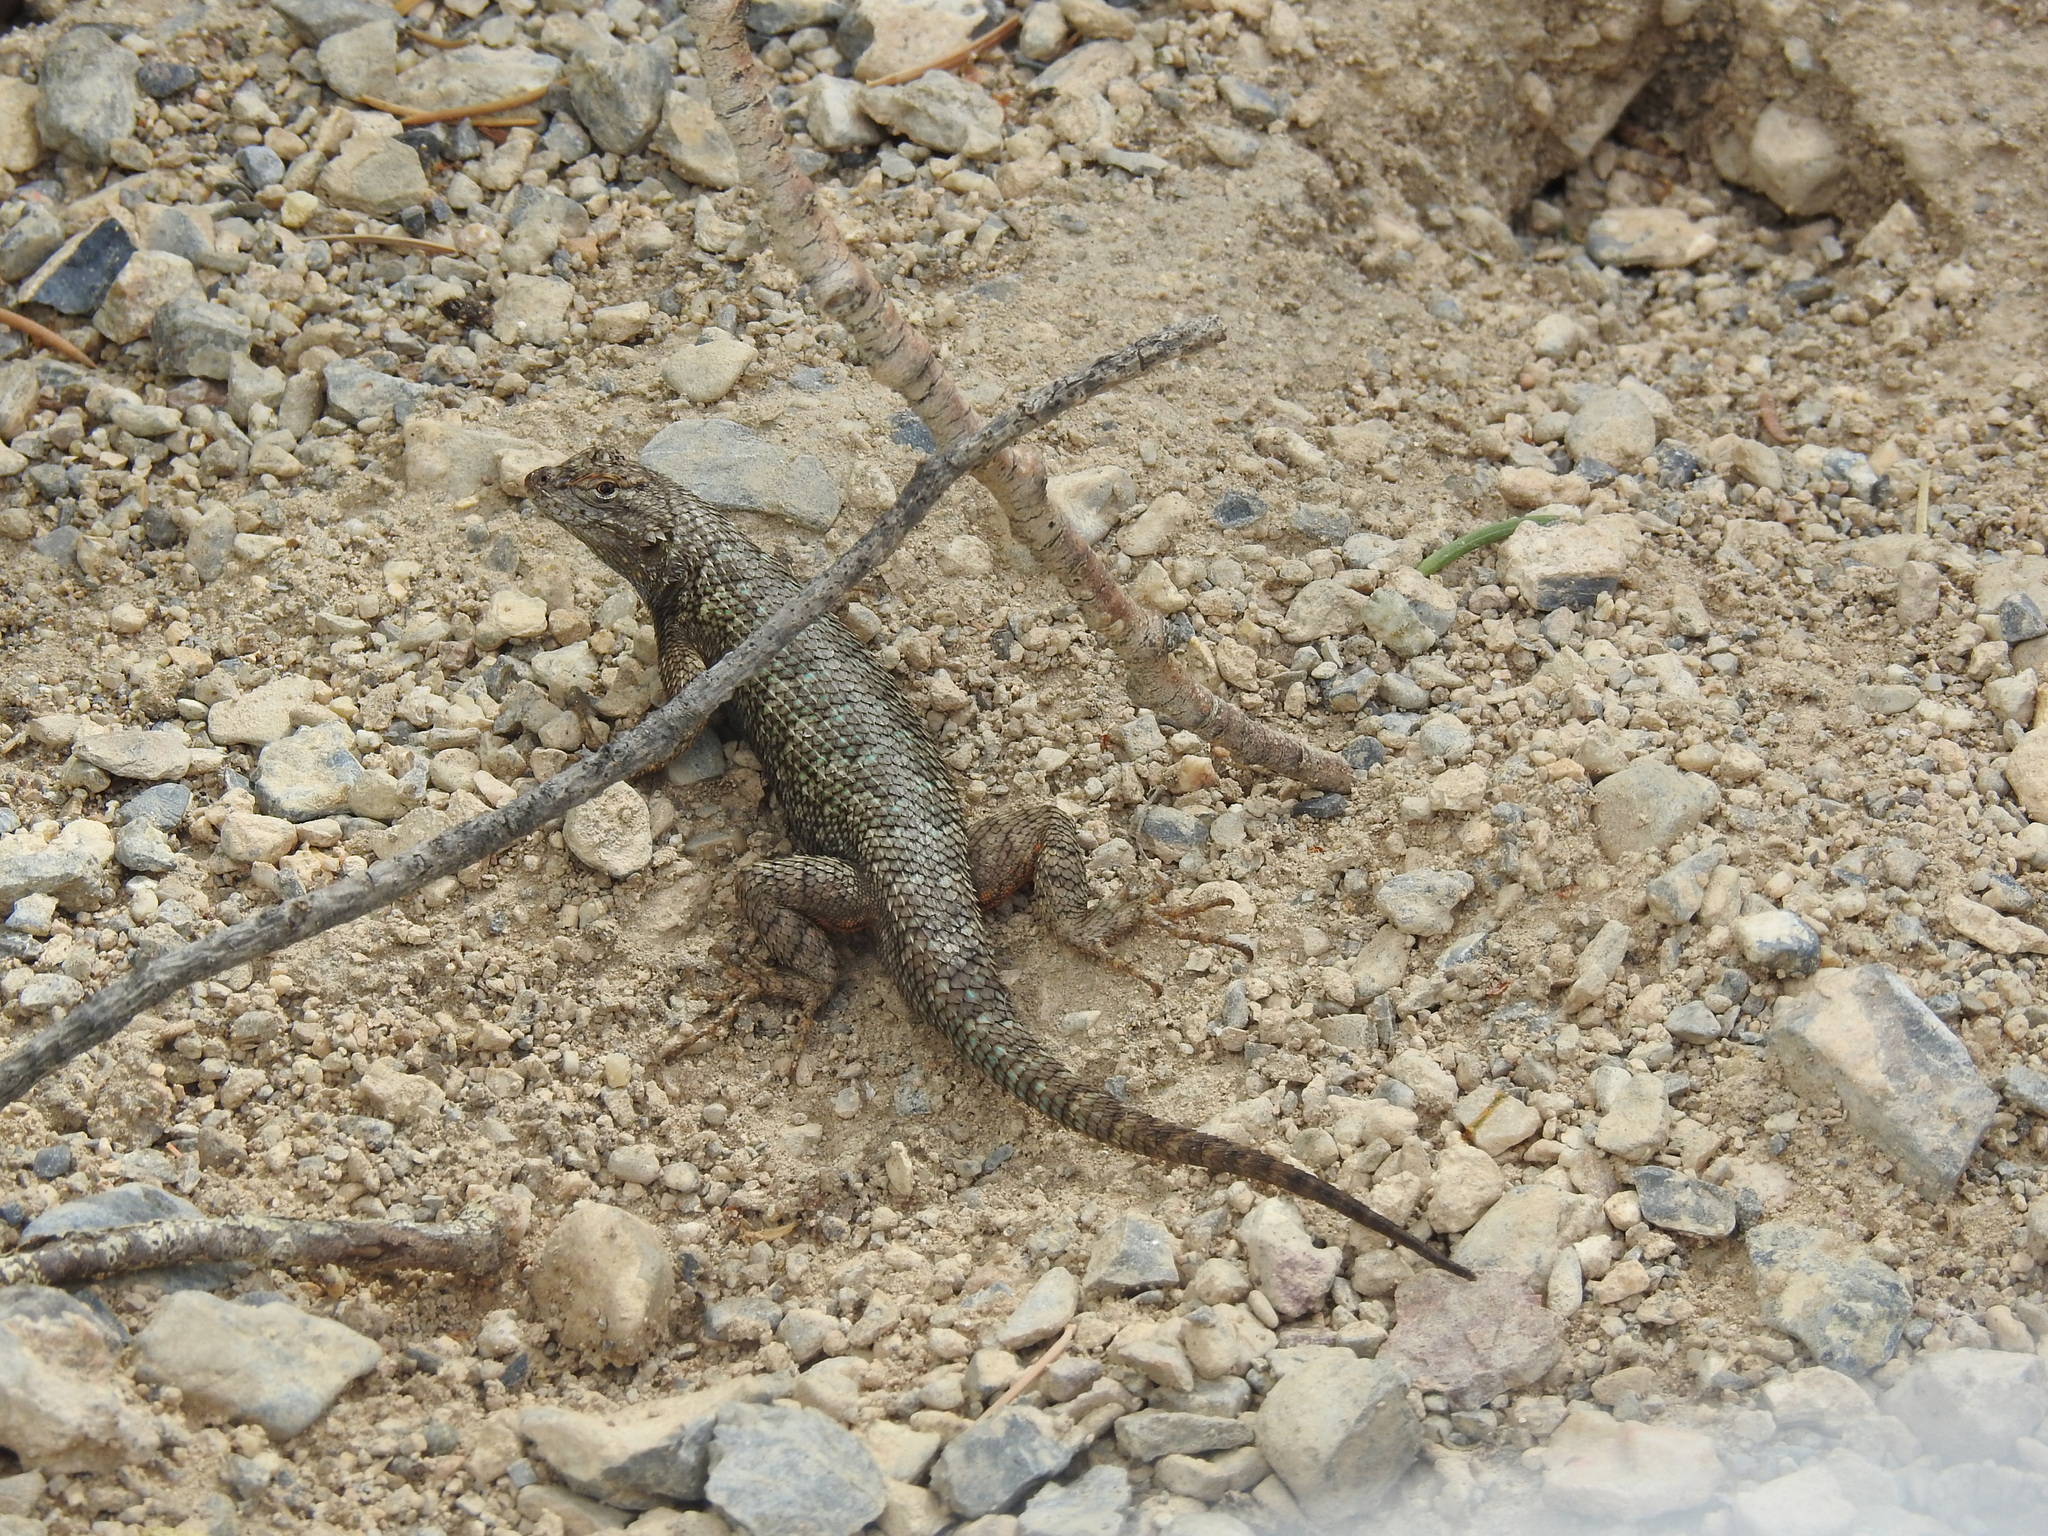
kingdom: Animalia
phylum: Chordata
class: Squamata
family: Phrynosomatidae
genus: Sceloporus
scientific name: Sceloporus occidentalis
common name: Western fence lizard
